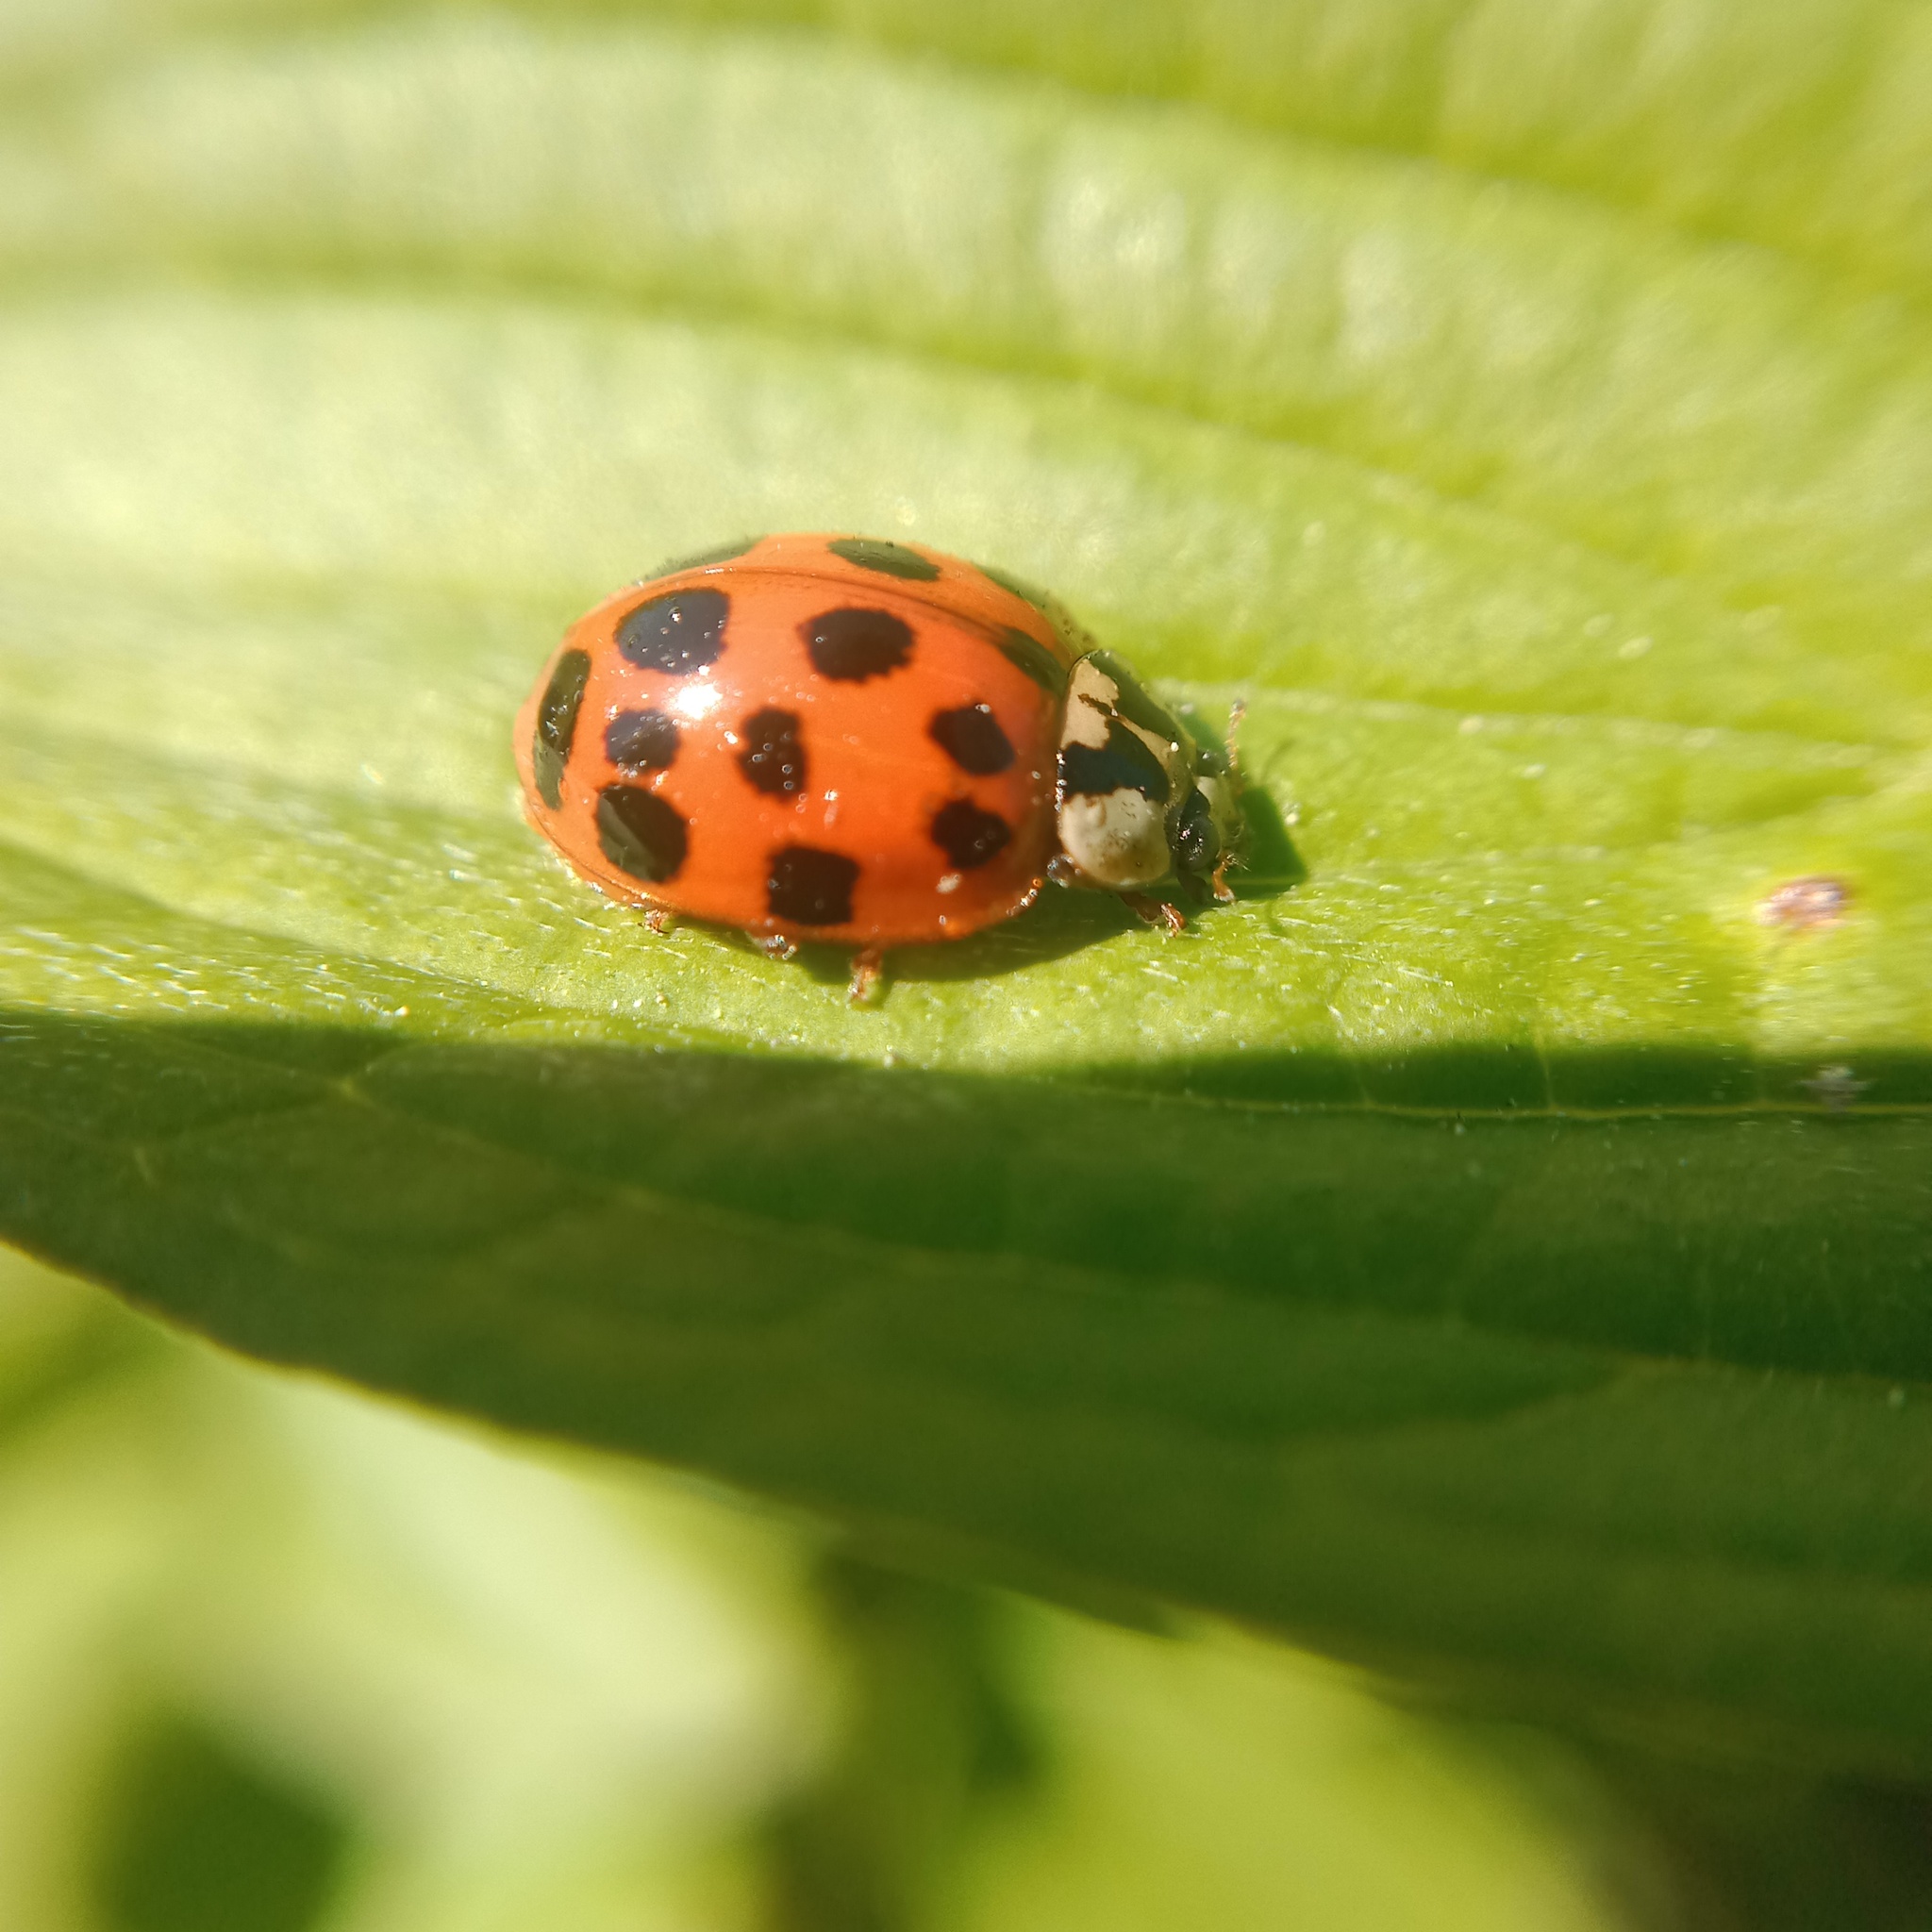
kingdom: Animalia
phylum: Arthropoda
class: Insecta
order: Coleoptera
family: Coccinellidae
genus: Harmonia
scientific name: Harmonia axyridis
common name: Harlequin ladybird
